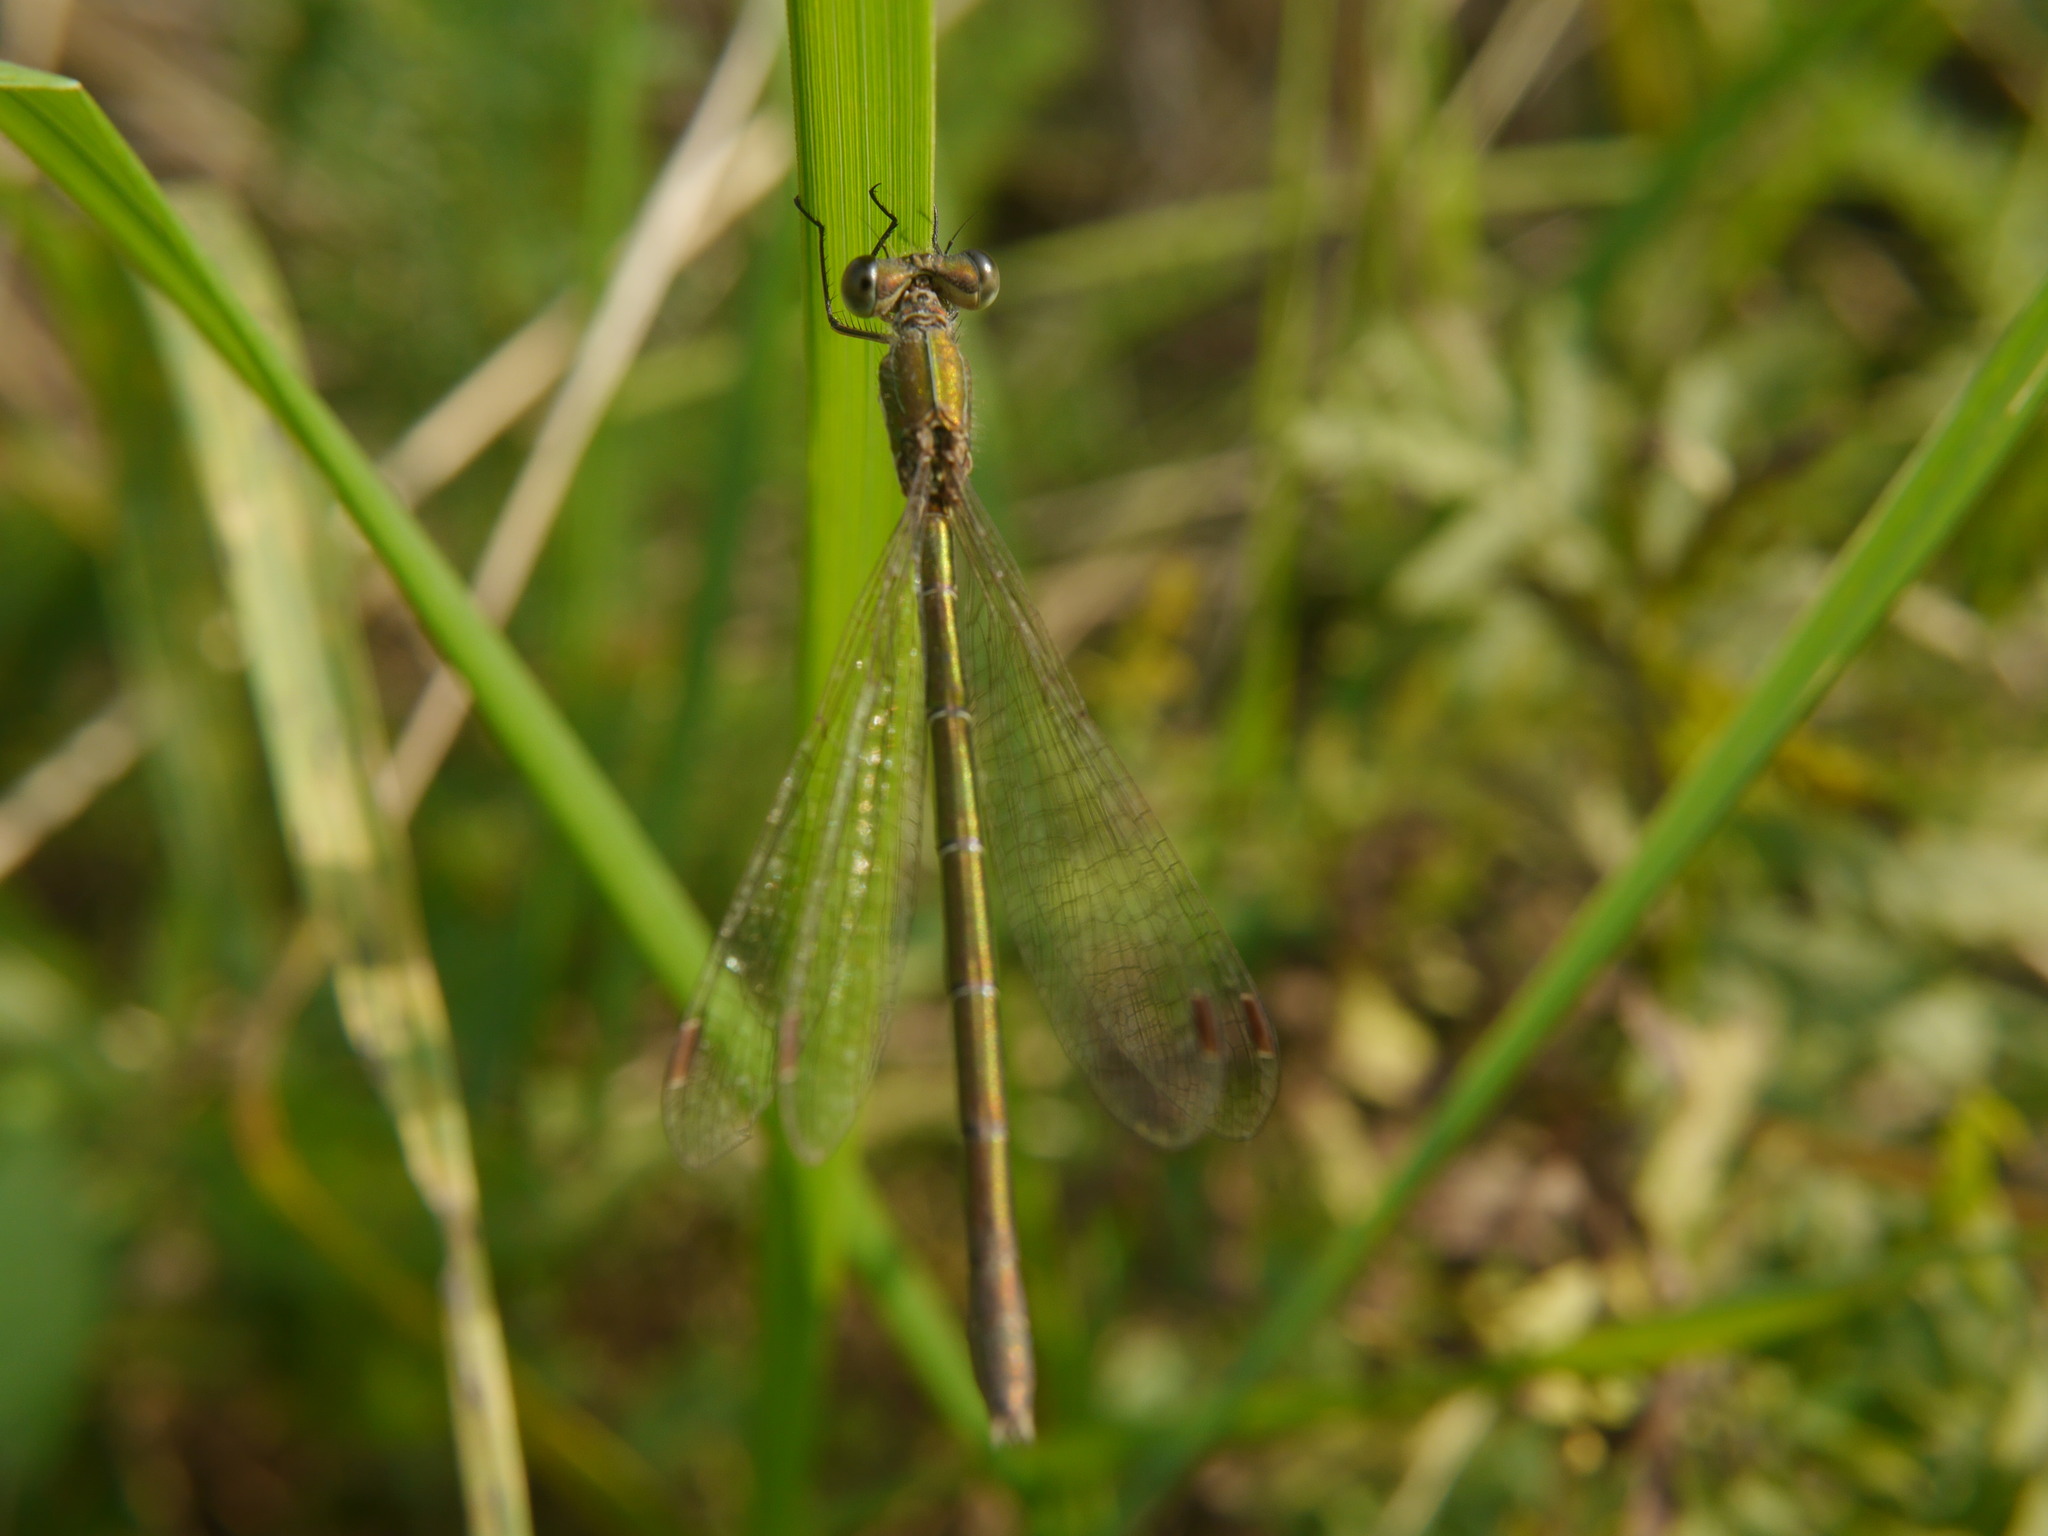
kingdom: Animalia
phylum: Arthropoda
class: Insecta
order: Odonata
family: Lestidae
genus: Lestes
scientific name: Lestes virens
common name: Small emerald spreadwing
